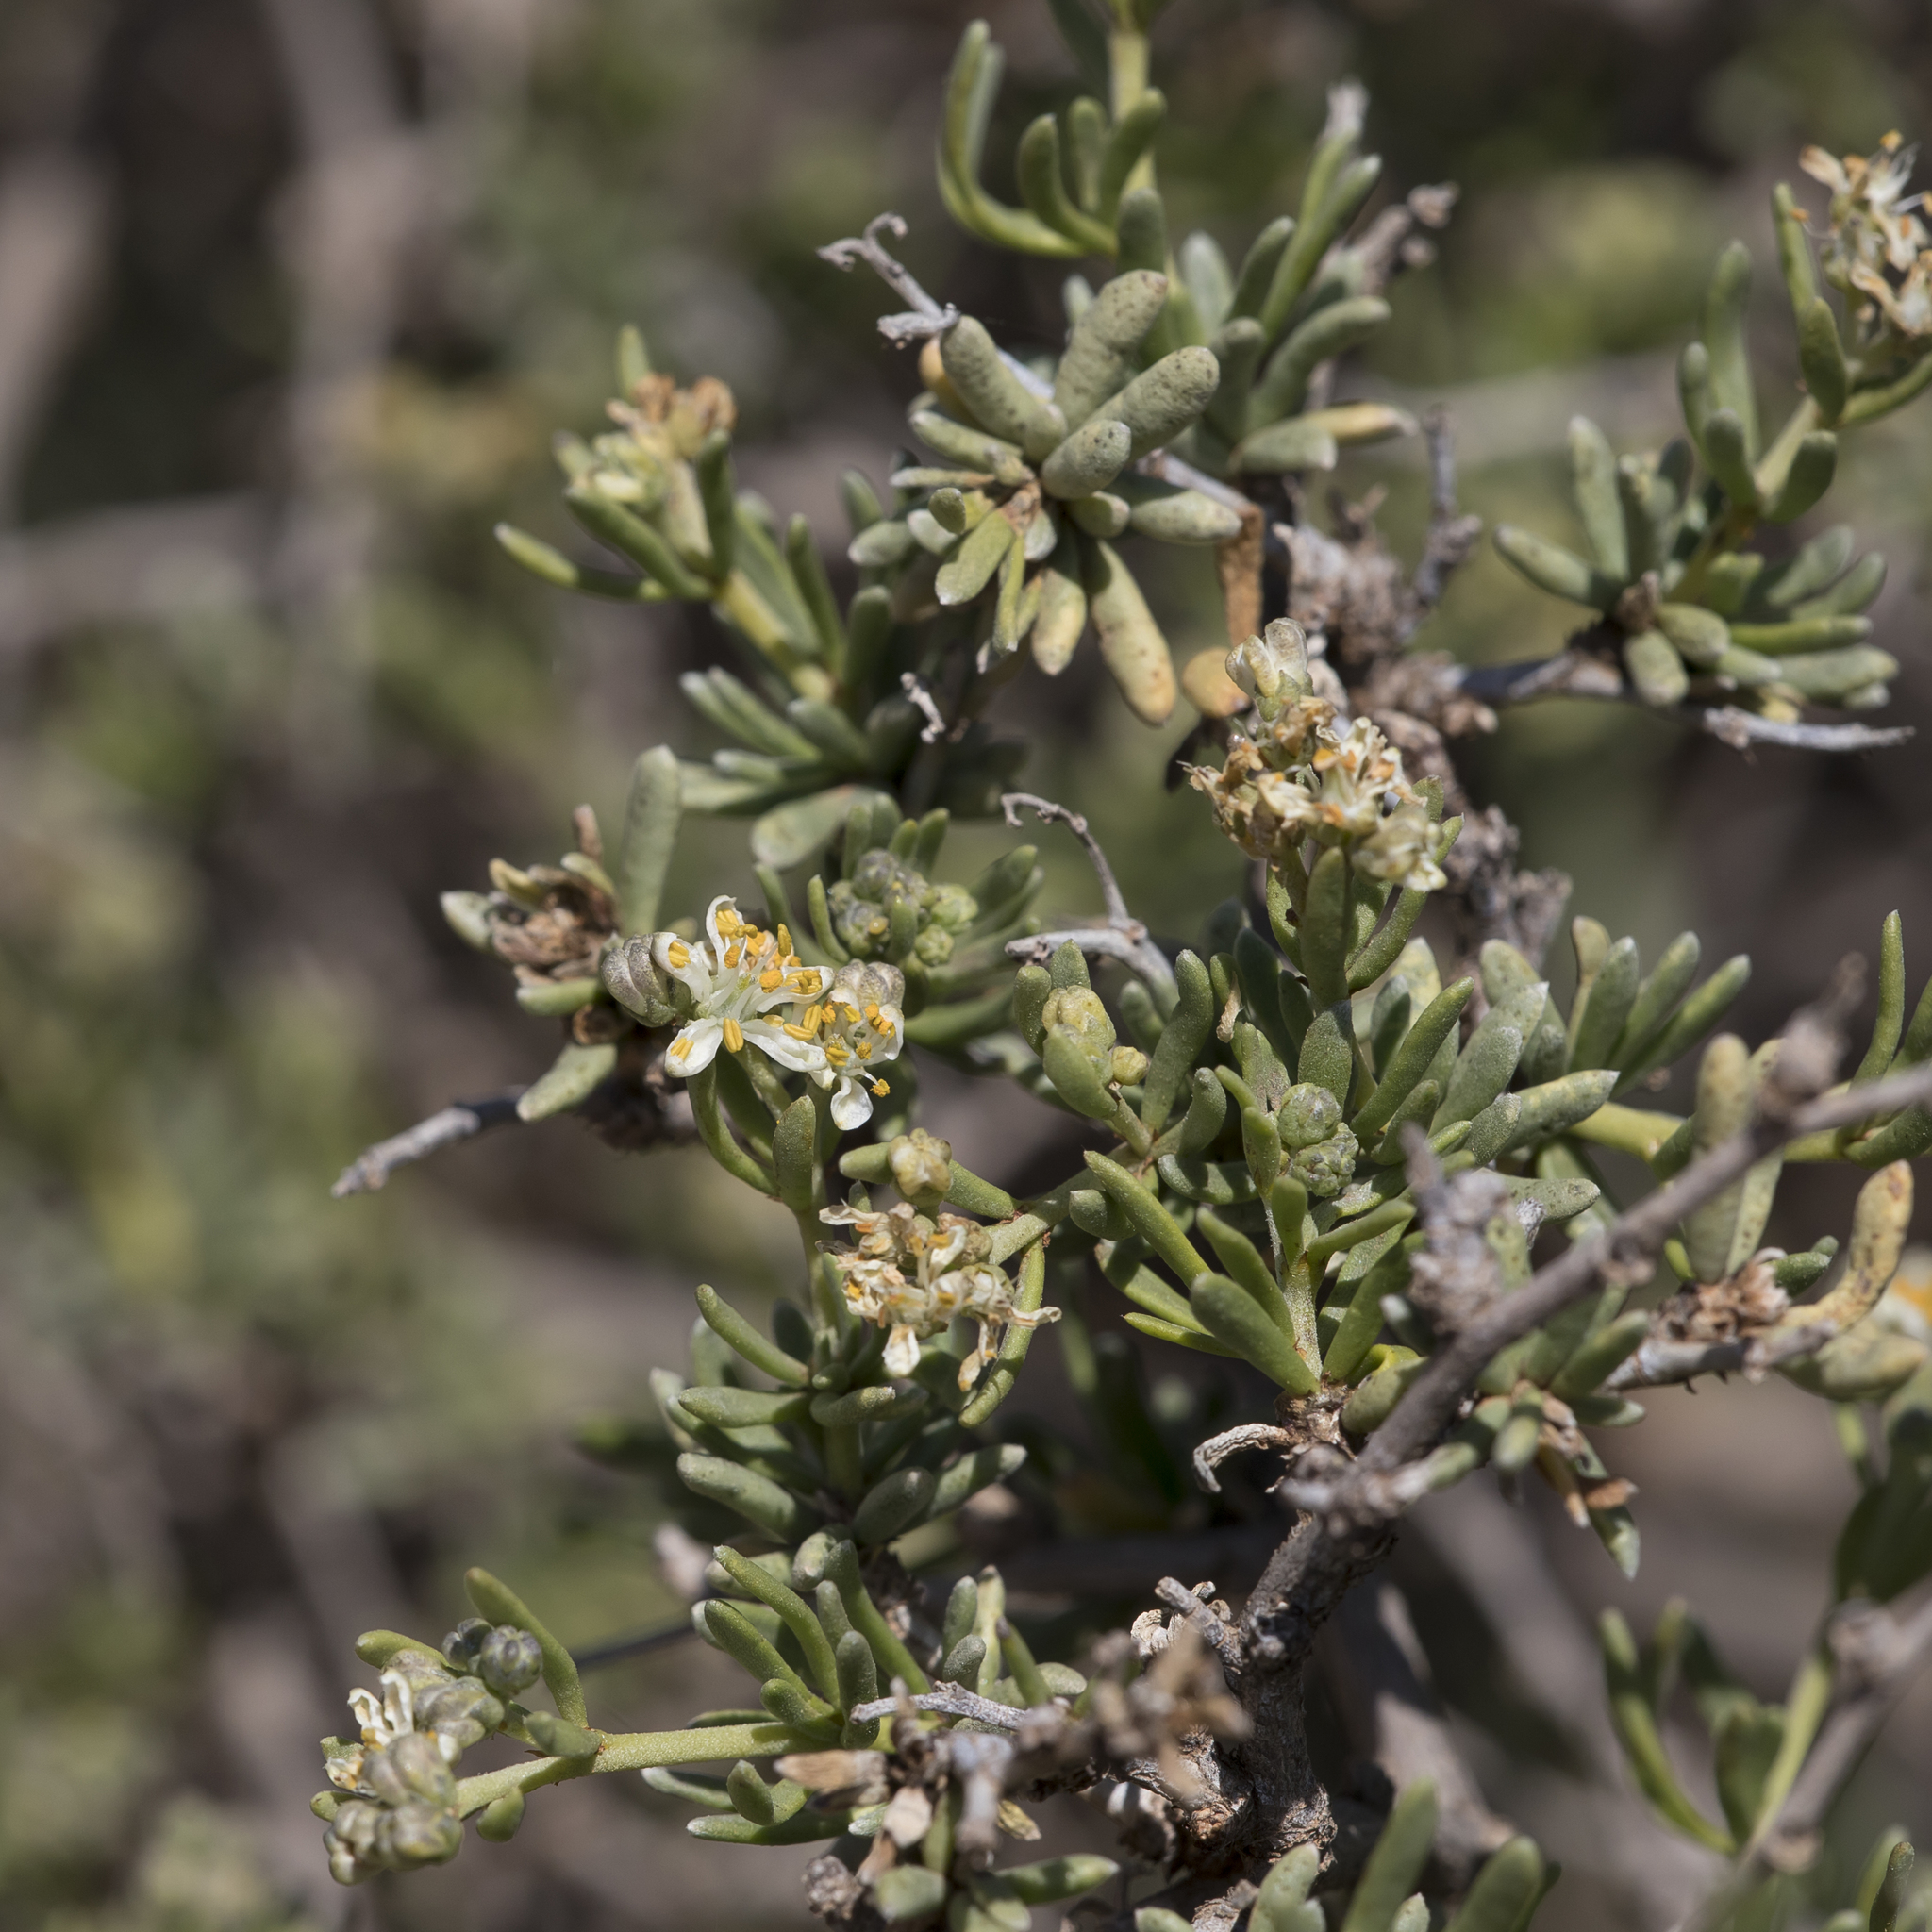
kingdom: Plantae
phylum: Tracheophyta
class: Magnoliopsida
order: Sapindales
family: Nitrariaceae
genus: Nitraria
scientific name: Nitraria billardierei
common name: Dillonbush
